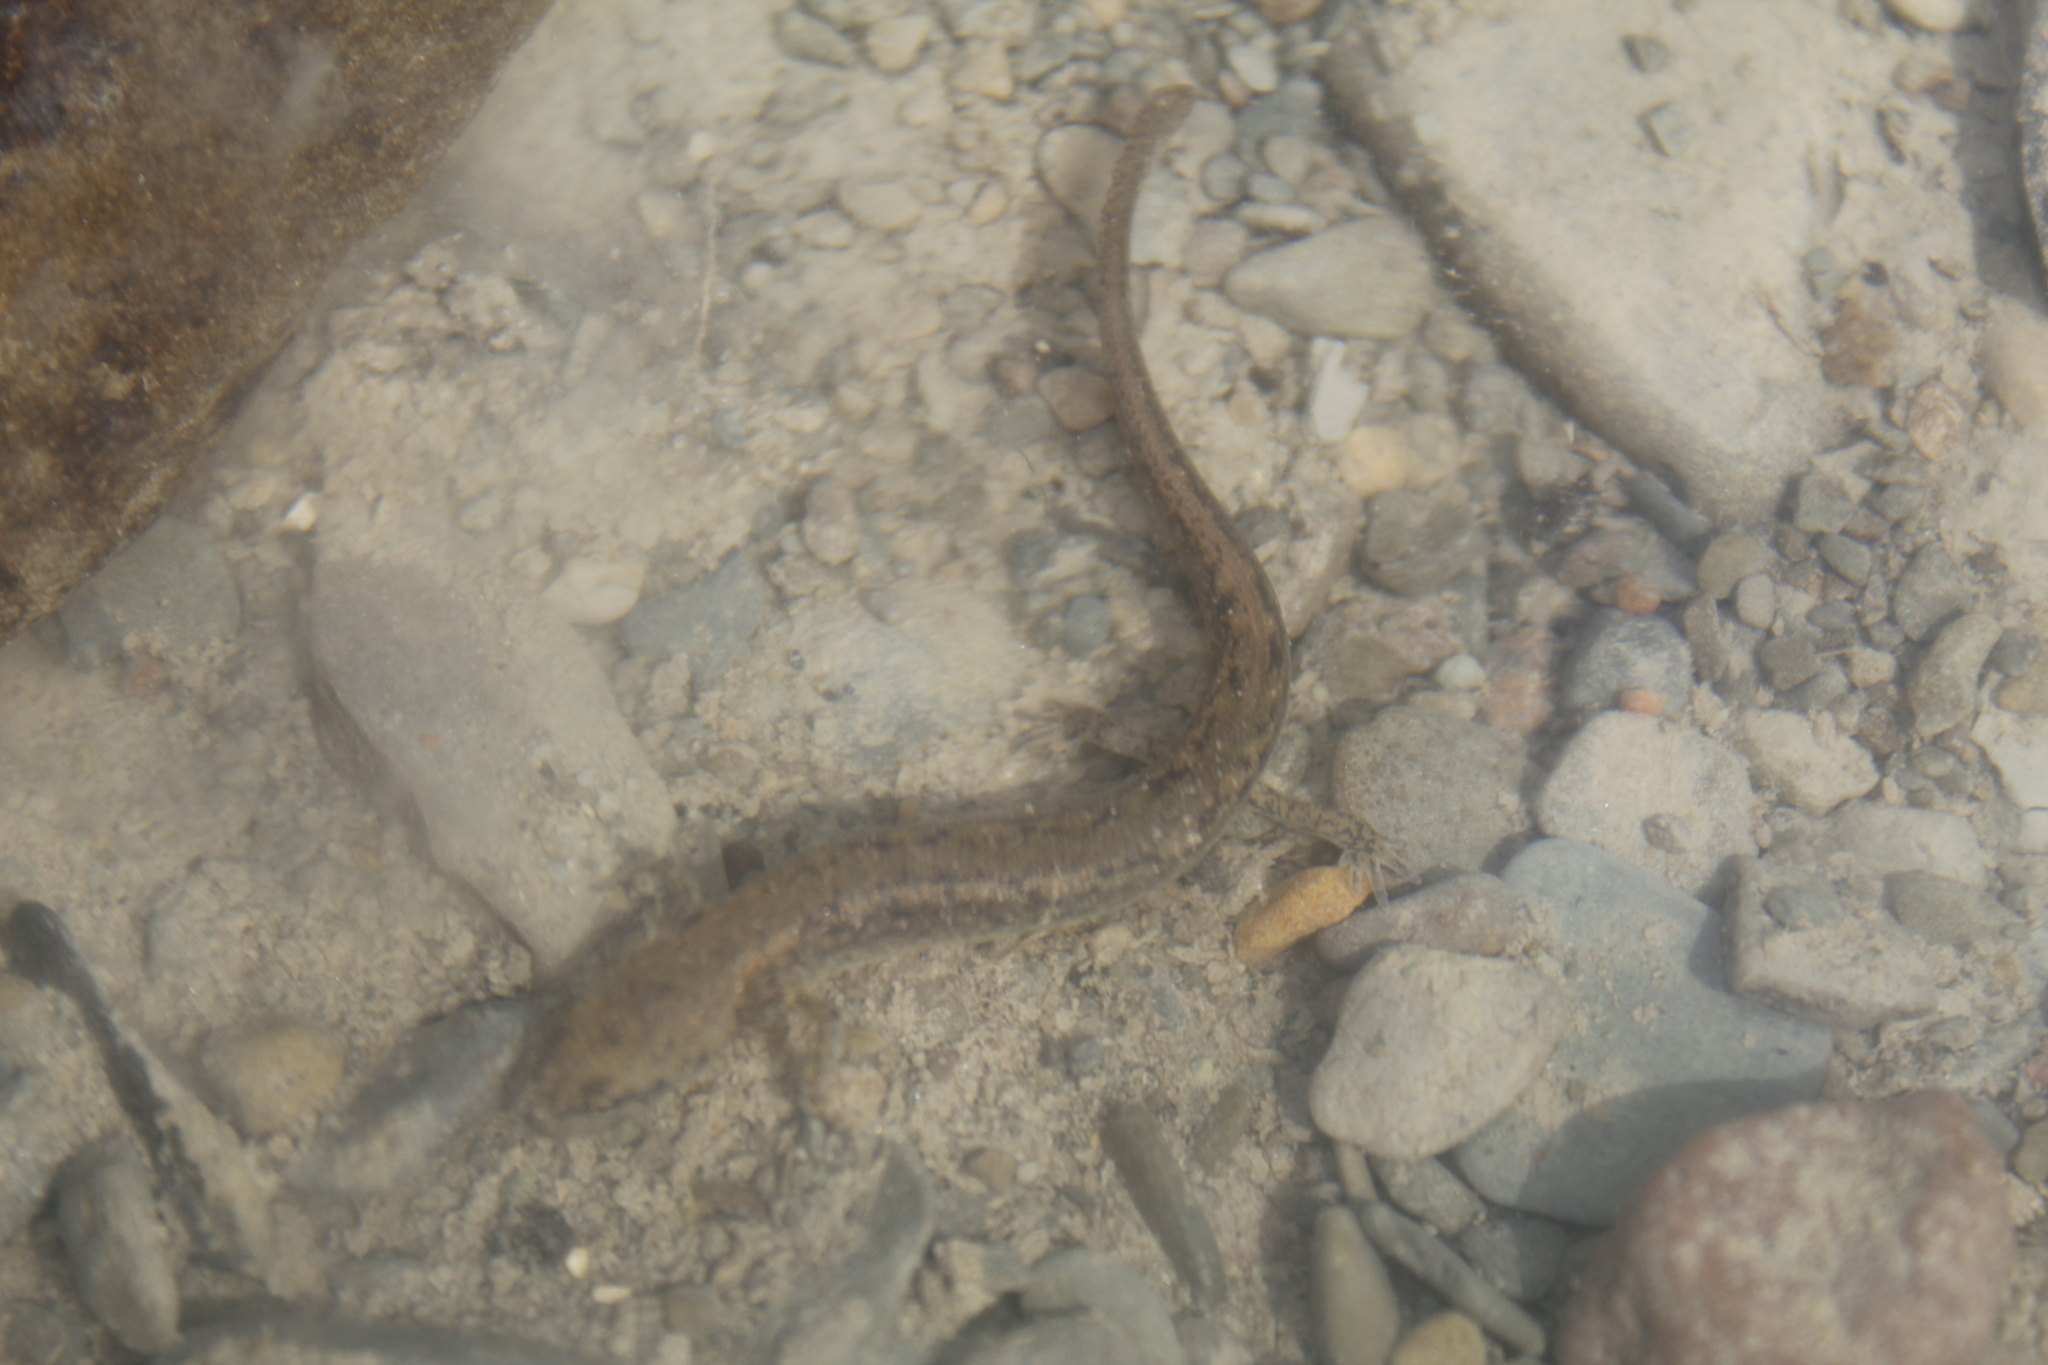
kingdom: Animalia
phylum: Chordata
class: Amphibia
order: Caudata
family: Plethodontidae
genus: Eurycea
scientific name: Eurycea bislineata
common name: Northern two-lined salamander
